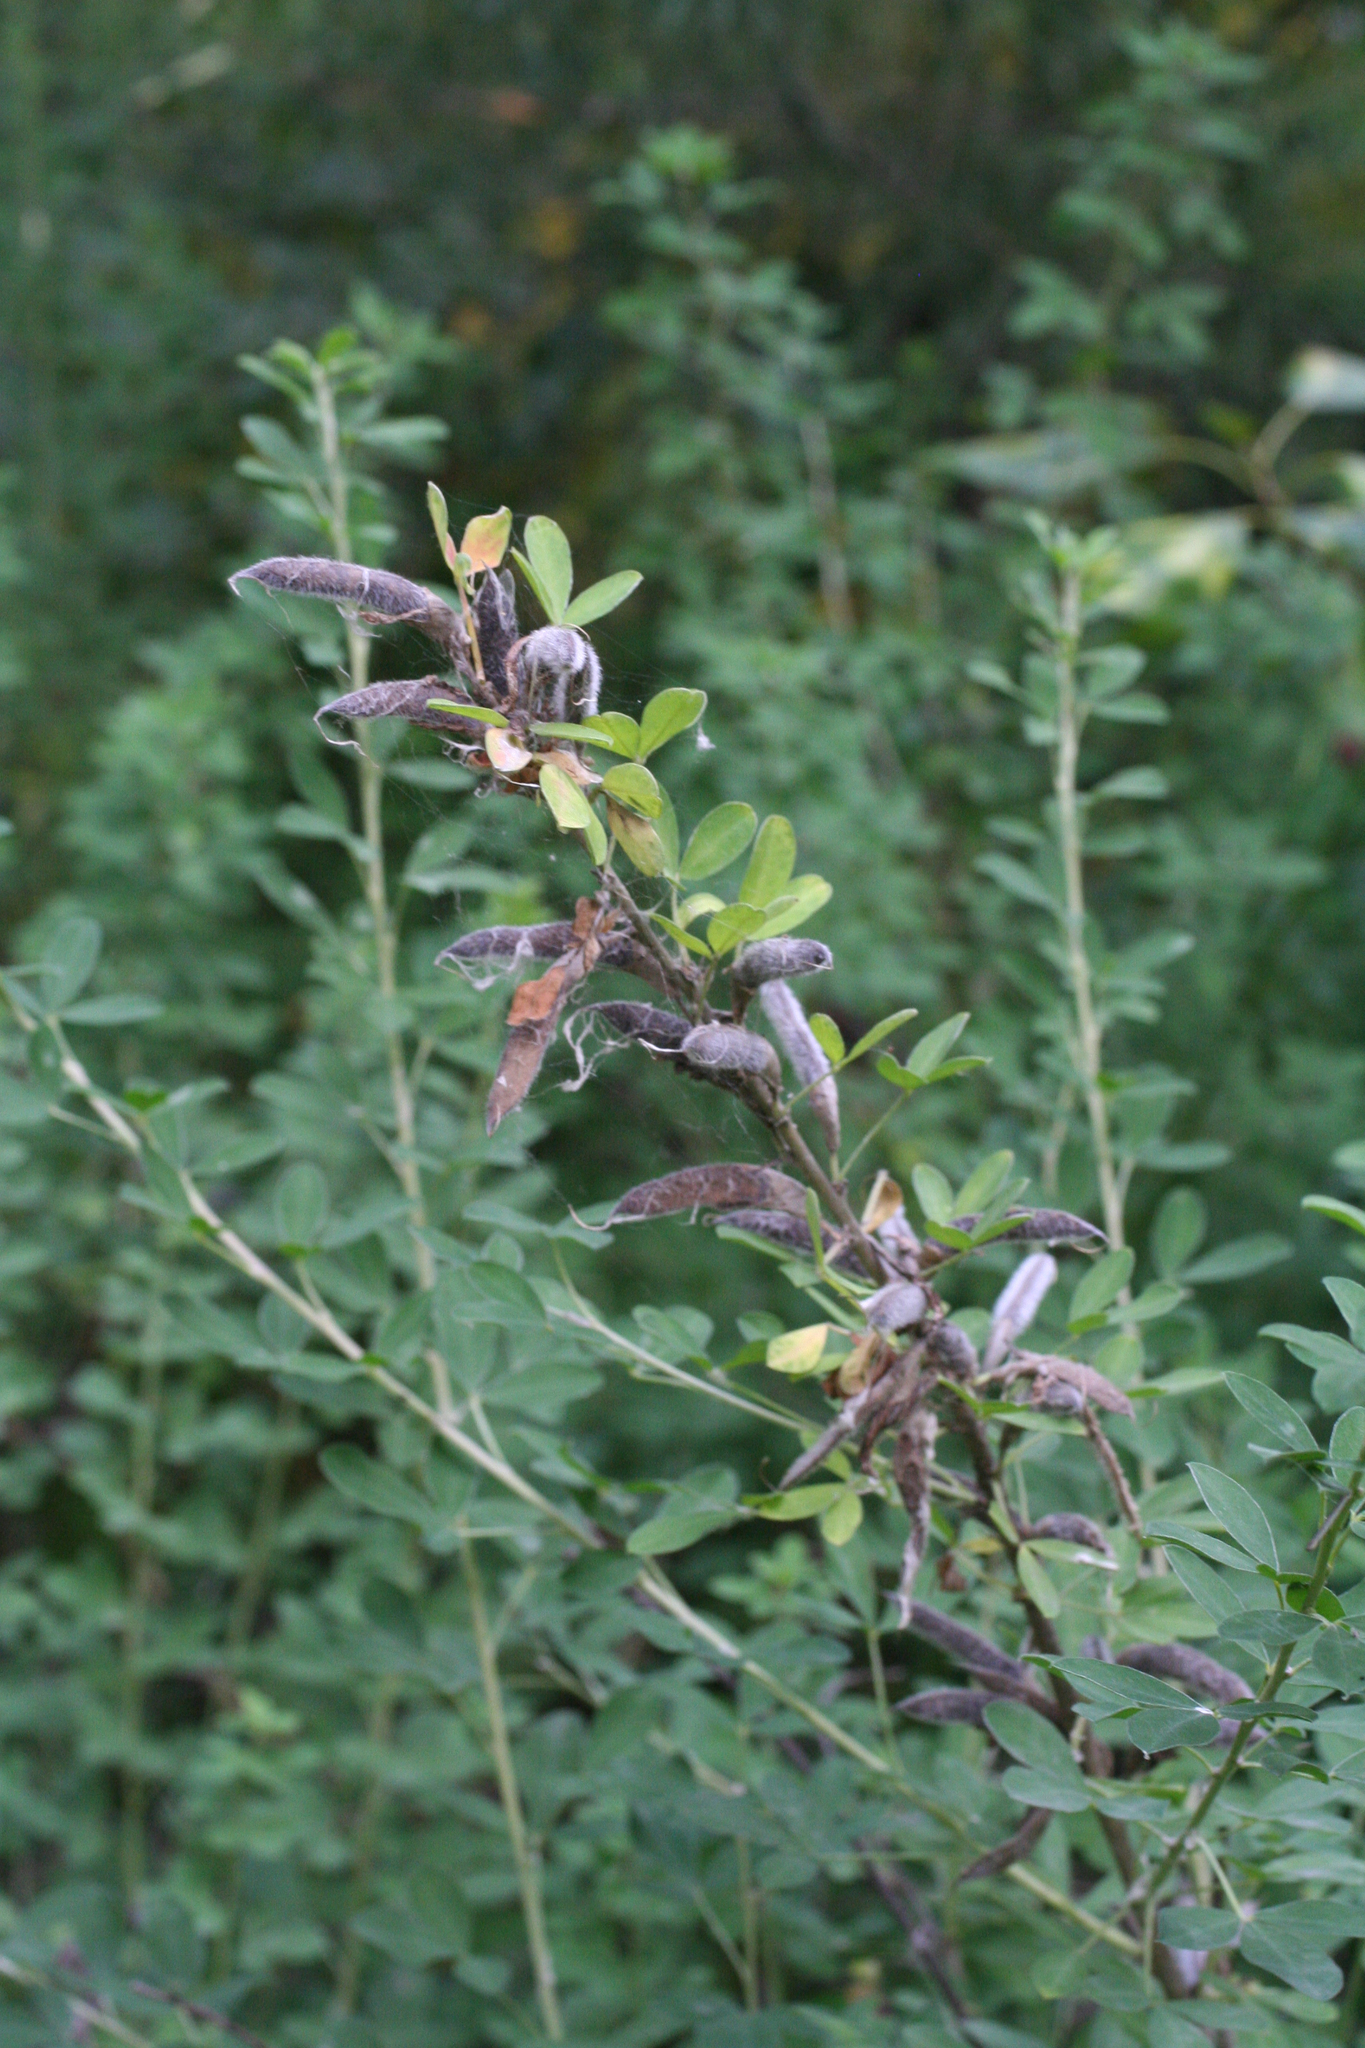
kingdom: Plantae
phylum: Tracheophyta
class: Magnoliopsida
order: Fabales
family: Fabaceae
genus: Chamaecytisus
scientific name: Chamaecytisus ruthenicus
